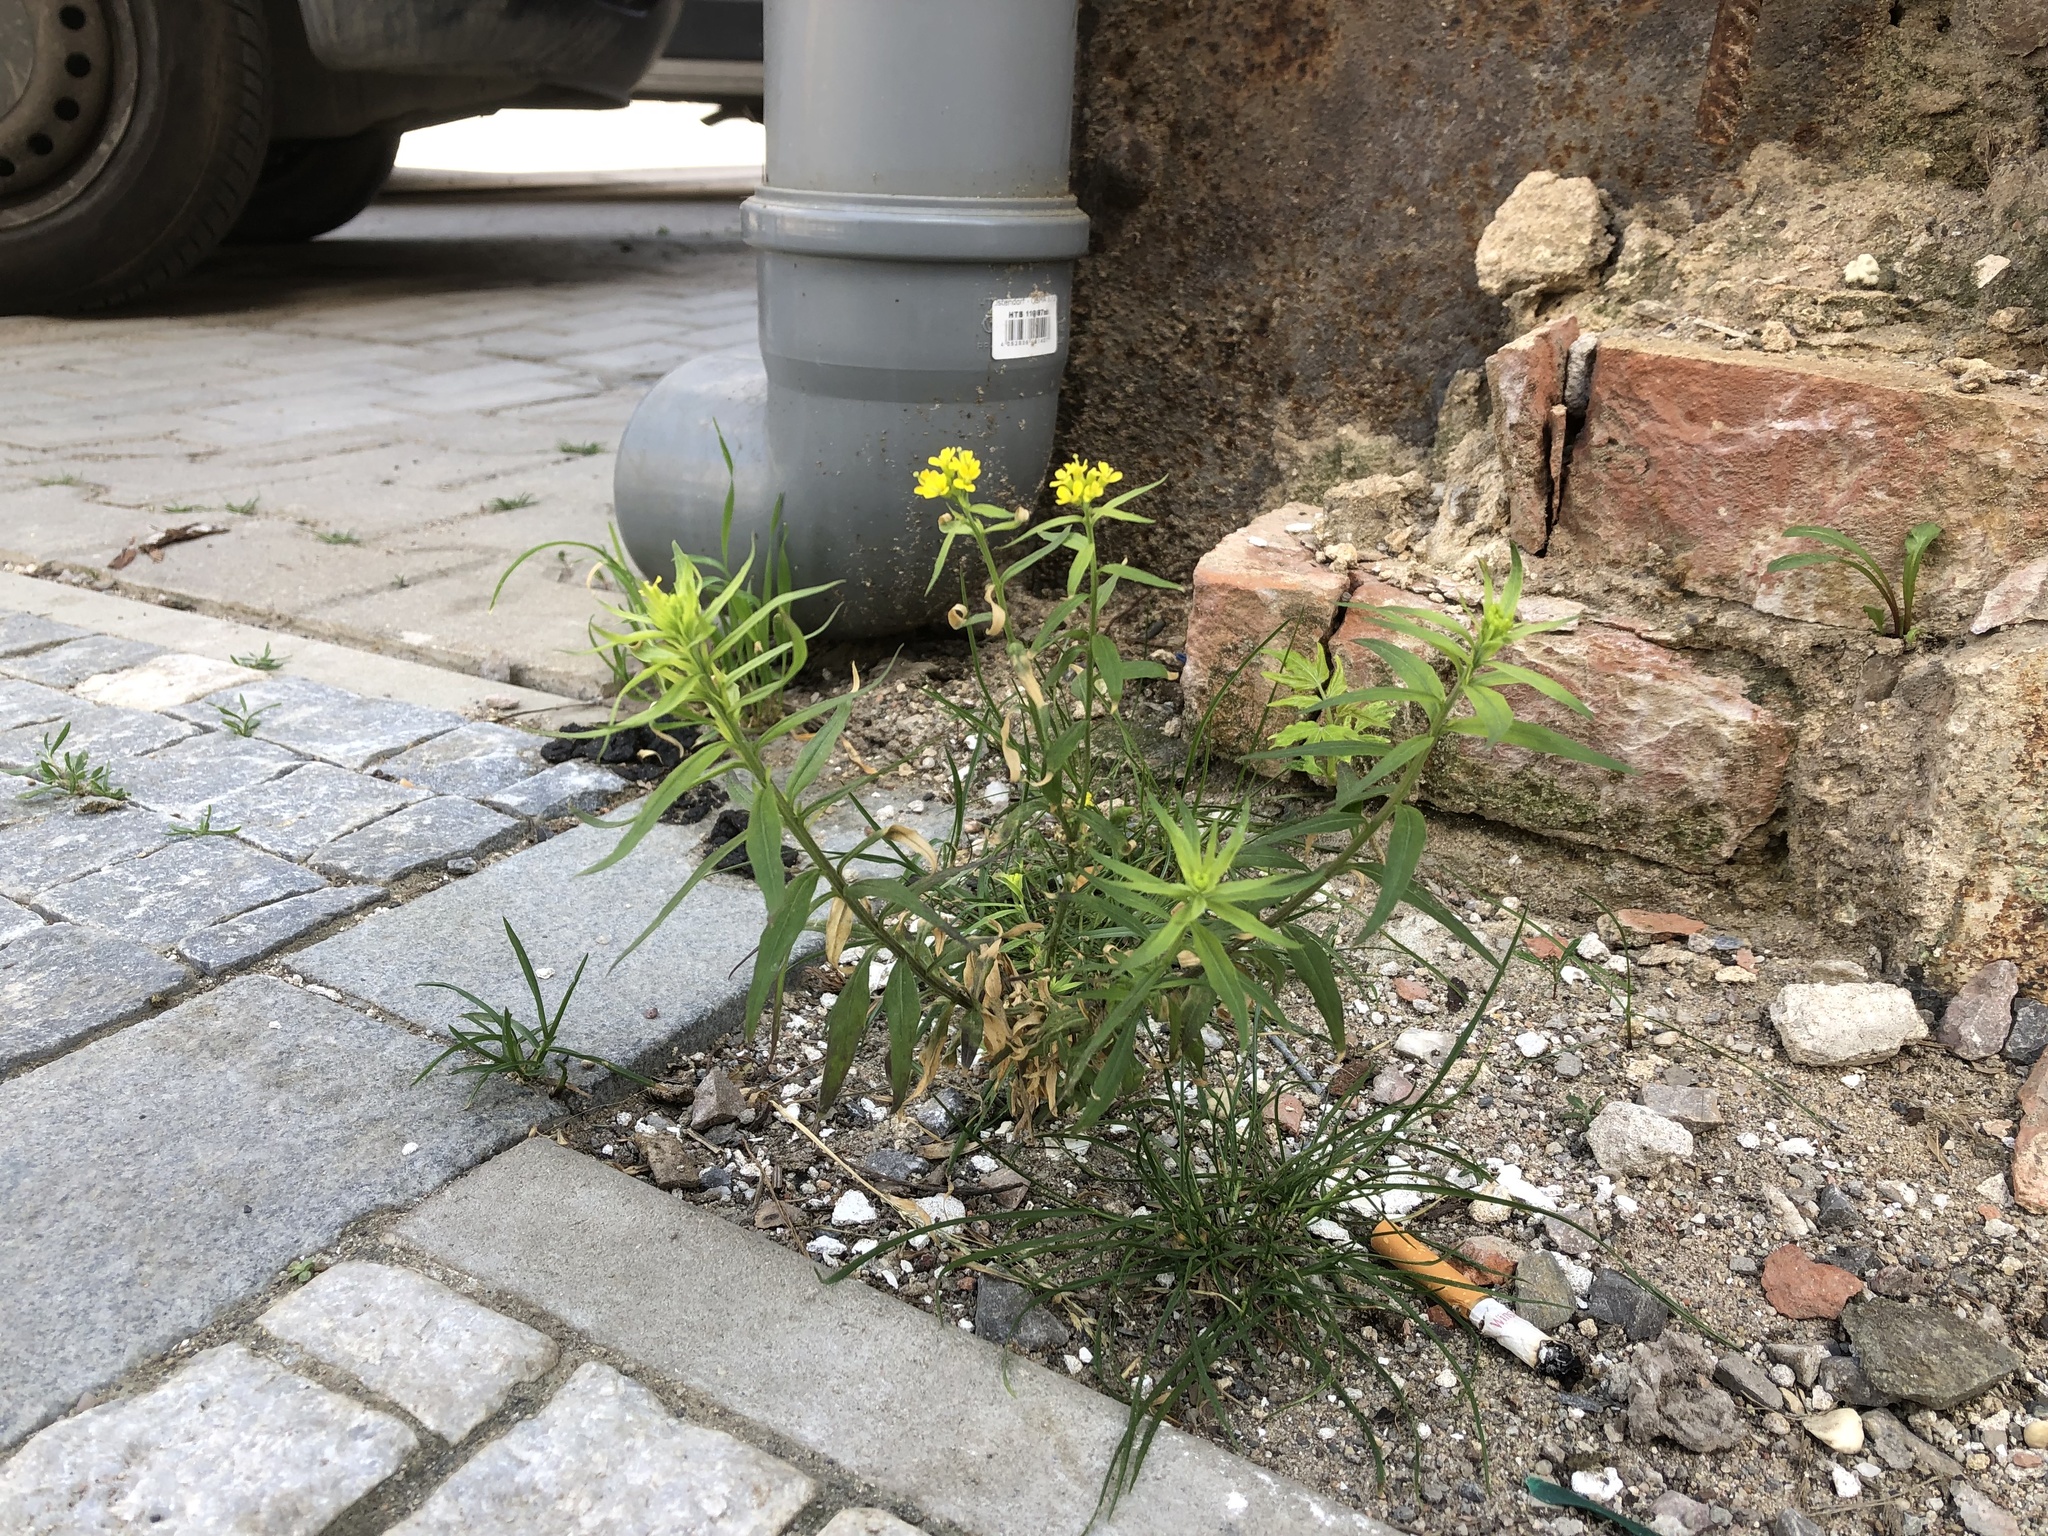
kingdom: Plantae
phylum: Tracheophyta
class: Magnoliopsida
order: Brassicales
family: Brassicaceae
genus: Erysimum
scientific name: Erysimum cheiranthoides
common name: Treacle mustard
